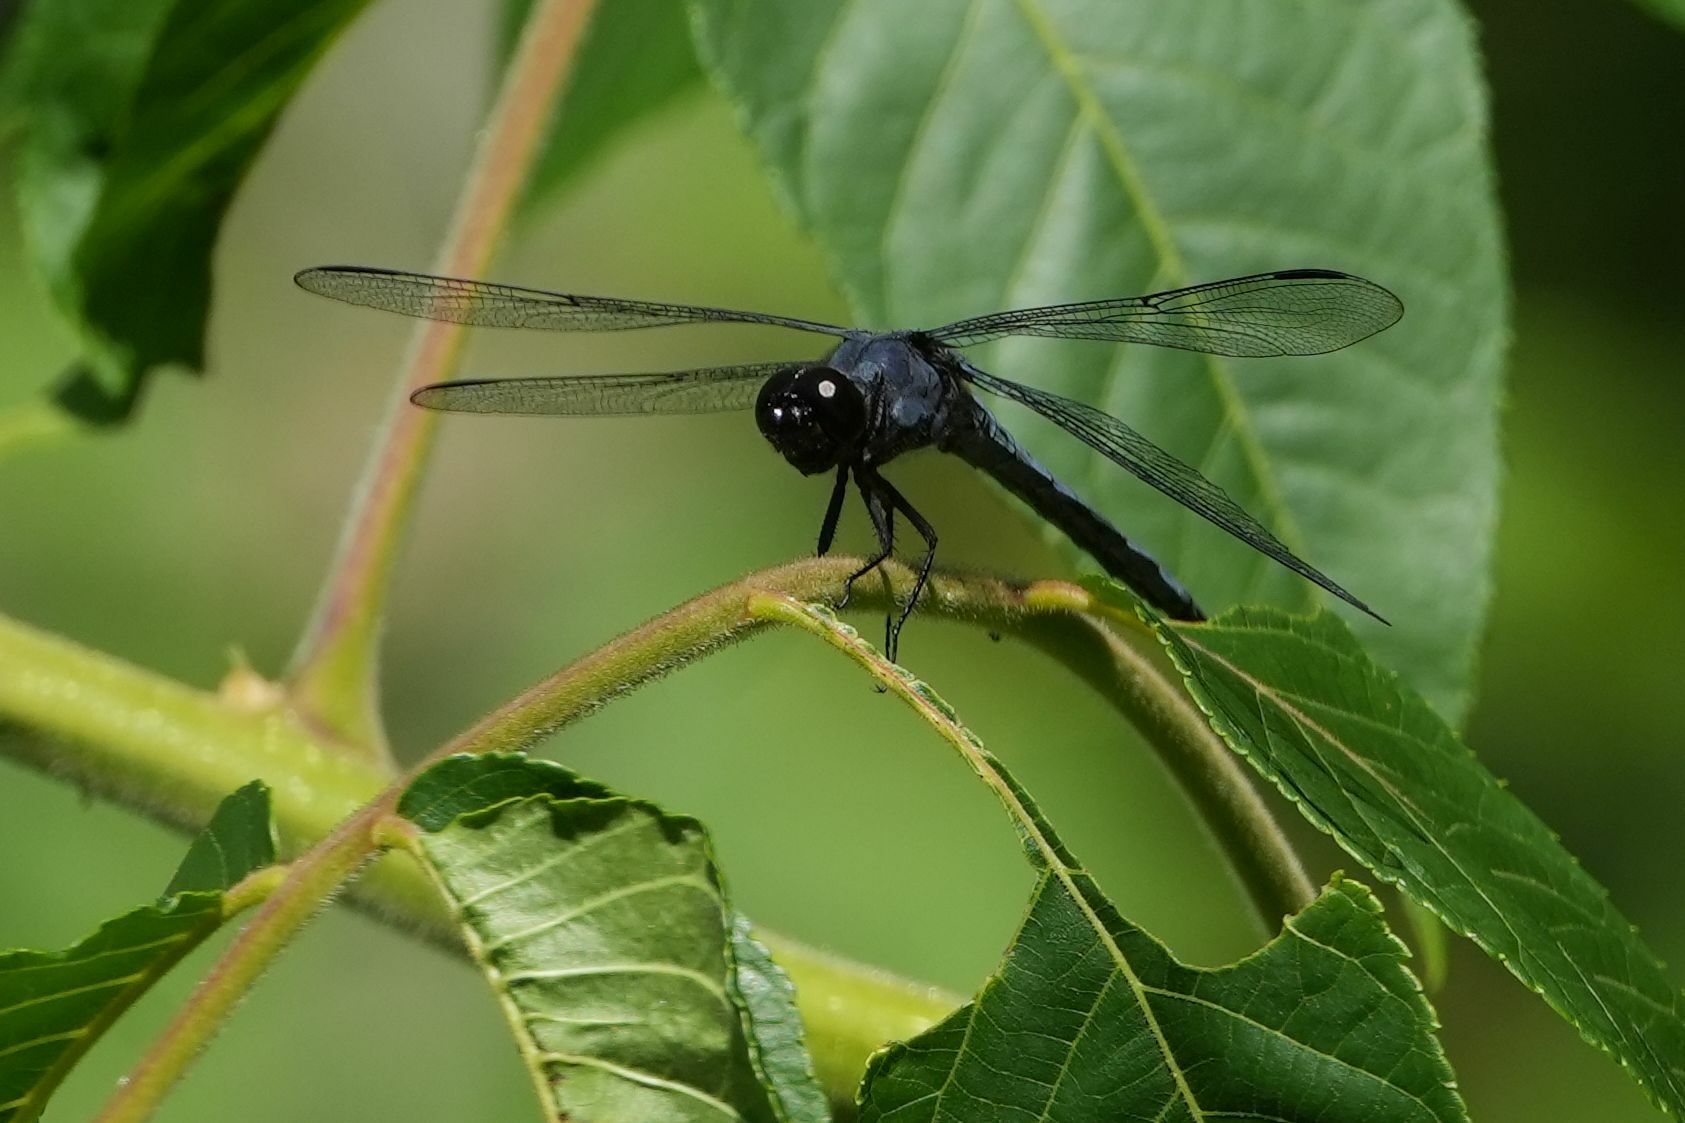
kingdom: Animalia
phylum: Arthropoda
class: Insecta
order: Odonata
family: Libellulidae
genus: Libellula
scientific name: Libellula incesta
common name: Slaty skimmer
